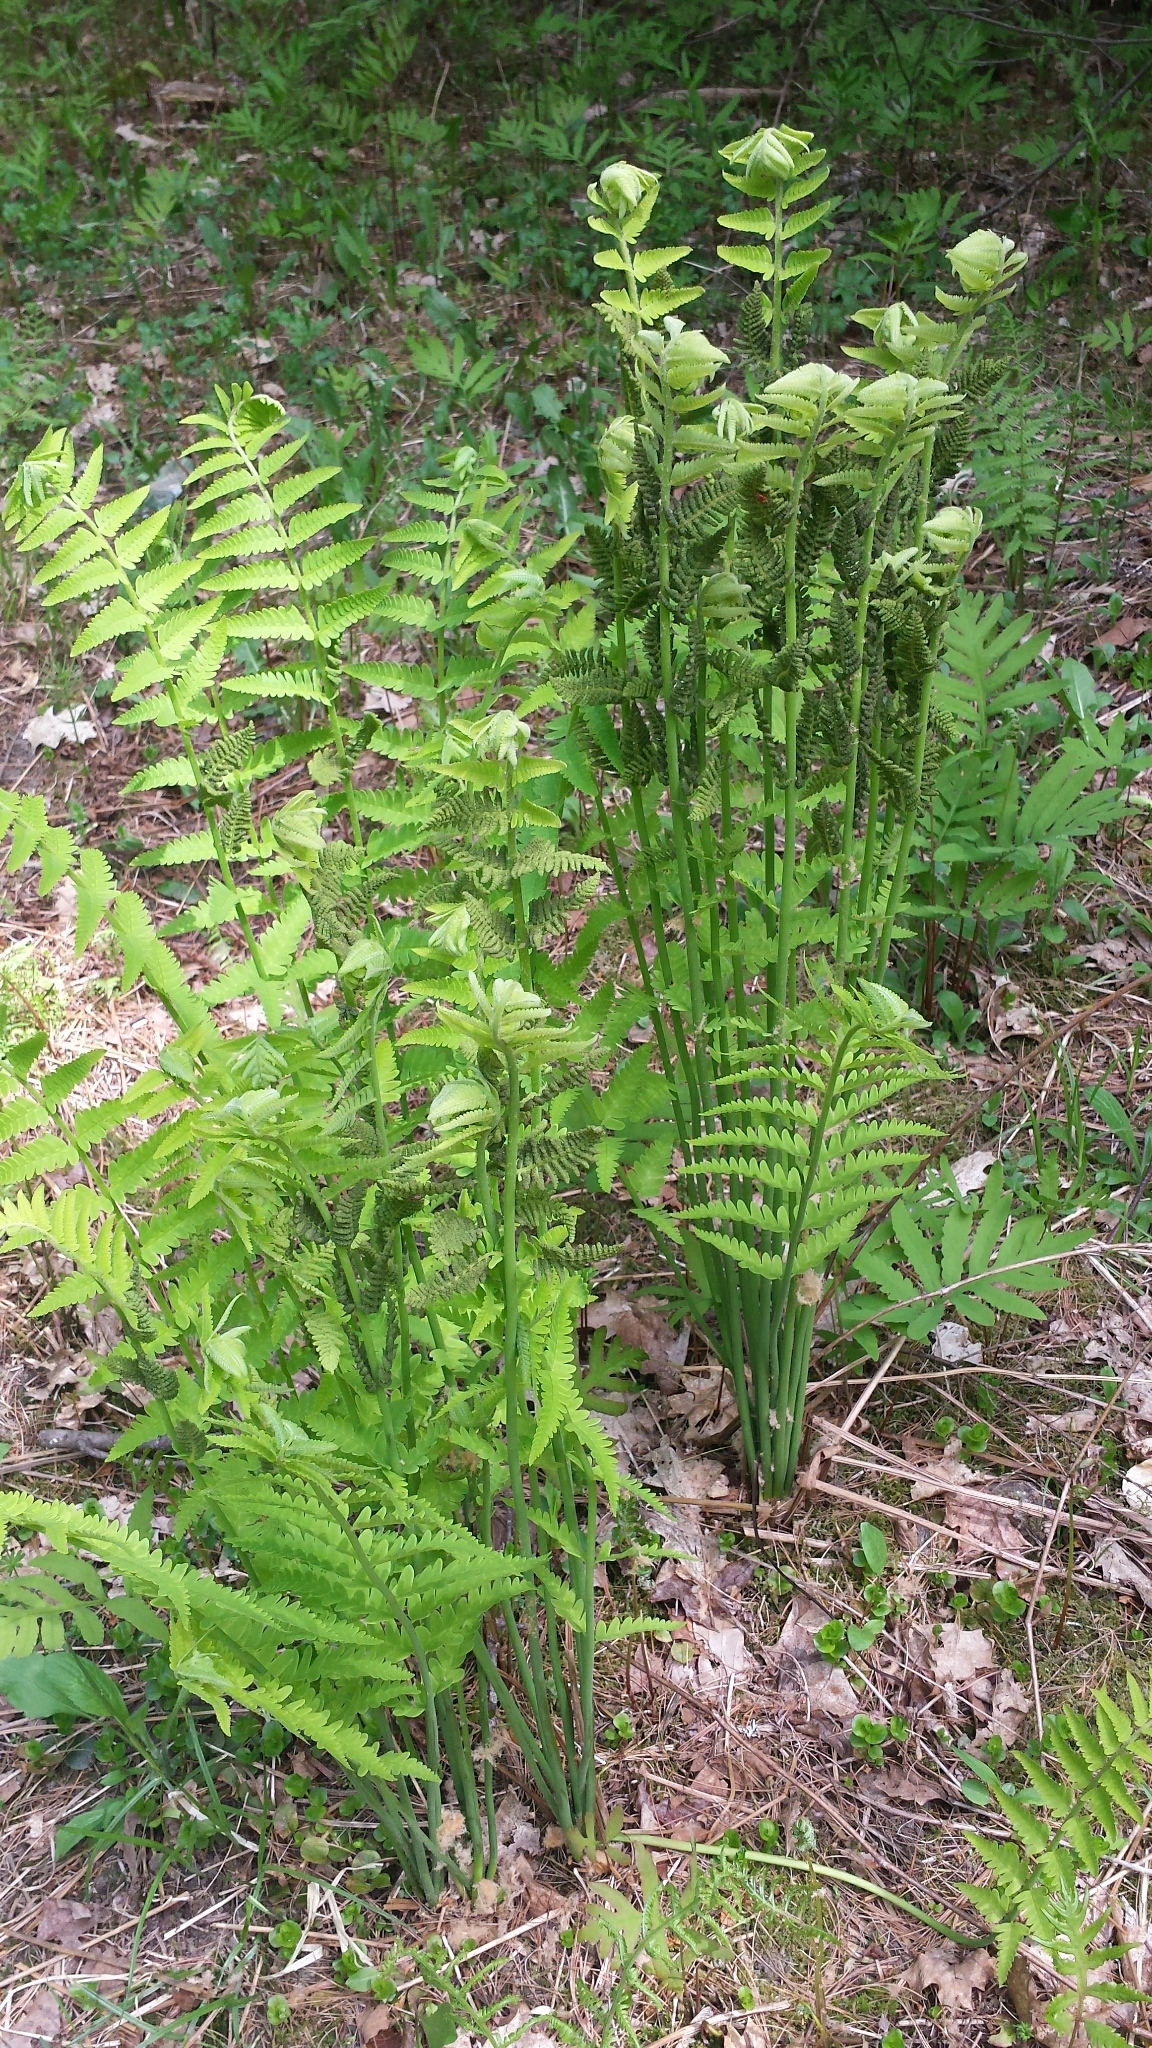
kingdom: Plantae
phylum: Tracheophyta
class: Polypodiopsida
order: Osmundales
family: Osmundaceae
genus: Claytosmunda
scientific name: Claytosmunda claytoniana
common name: Clayton's fern
